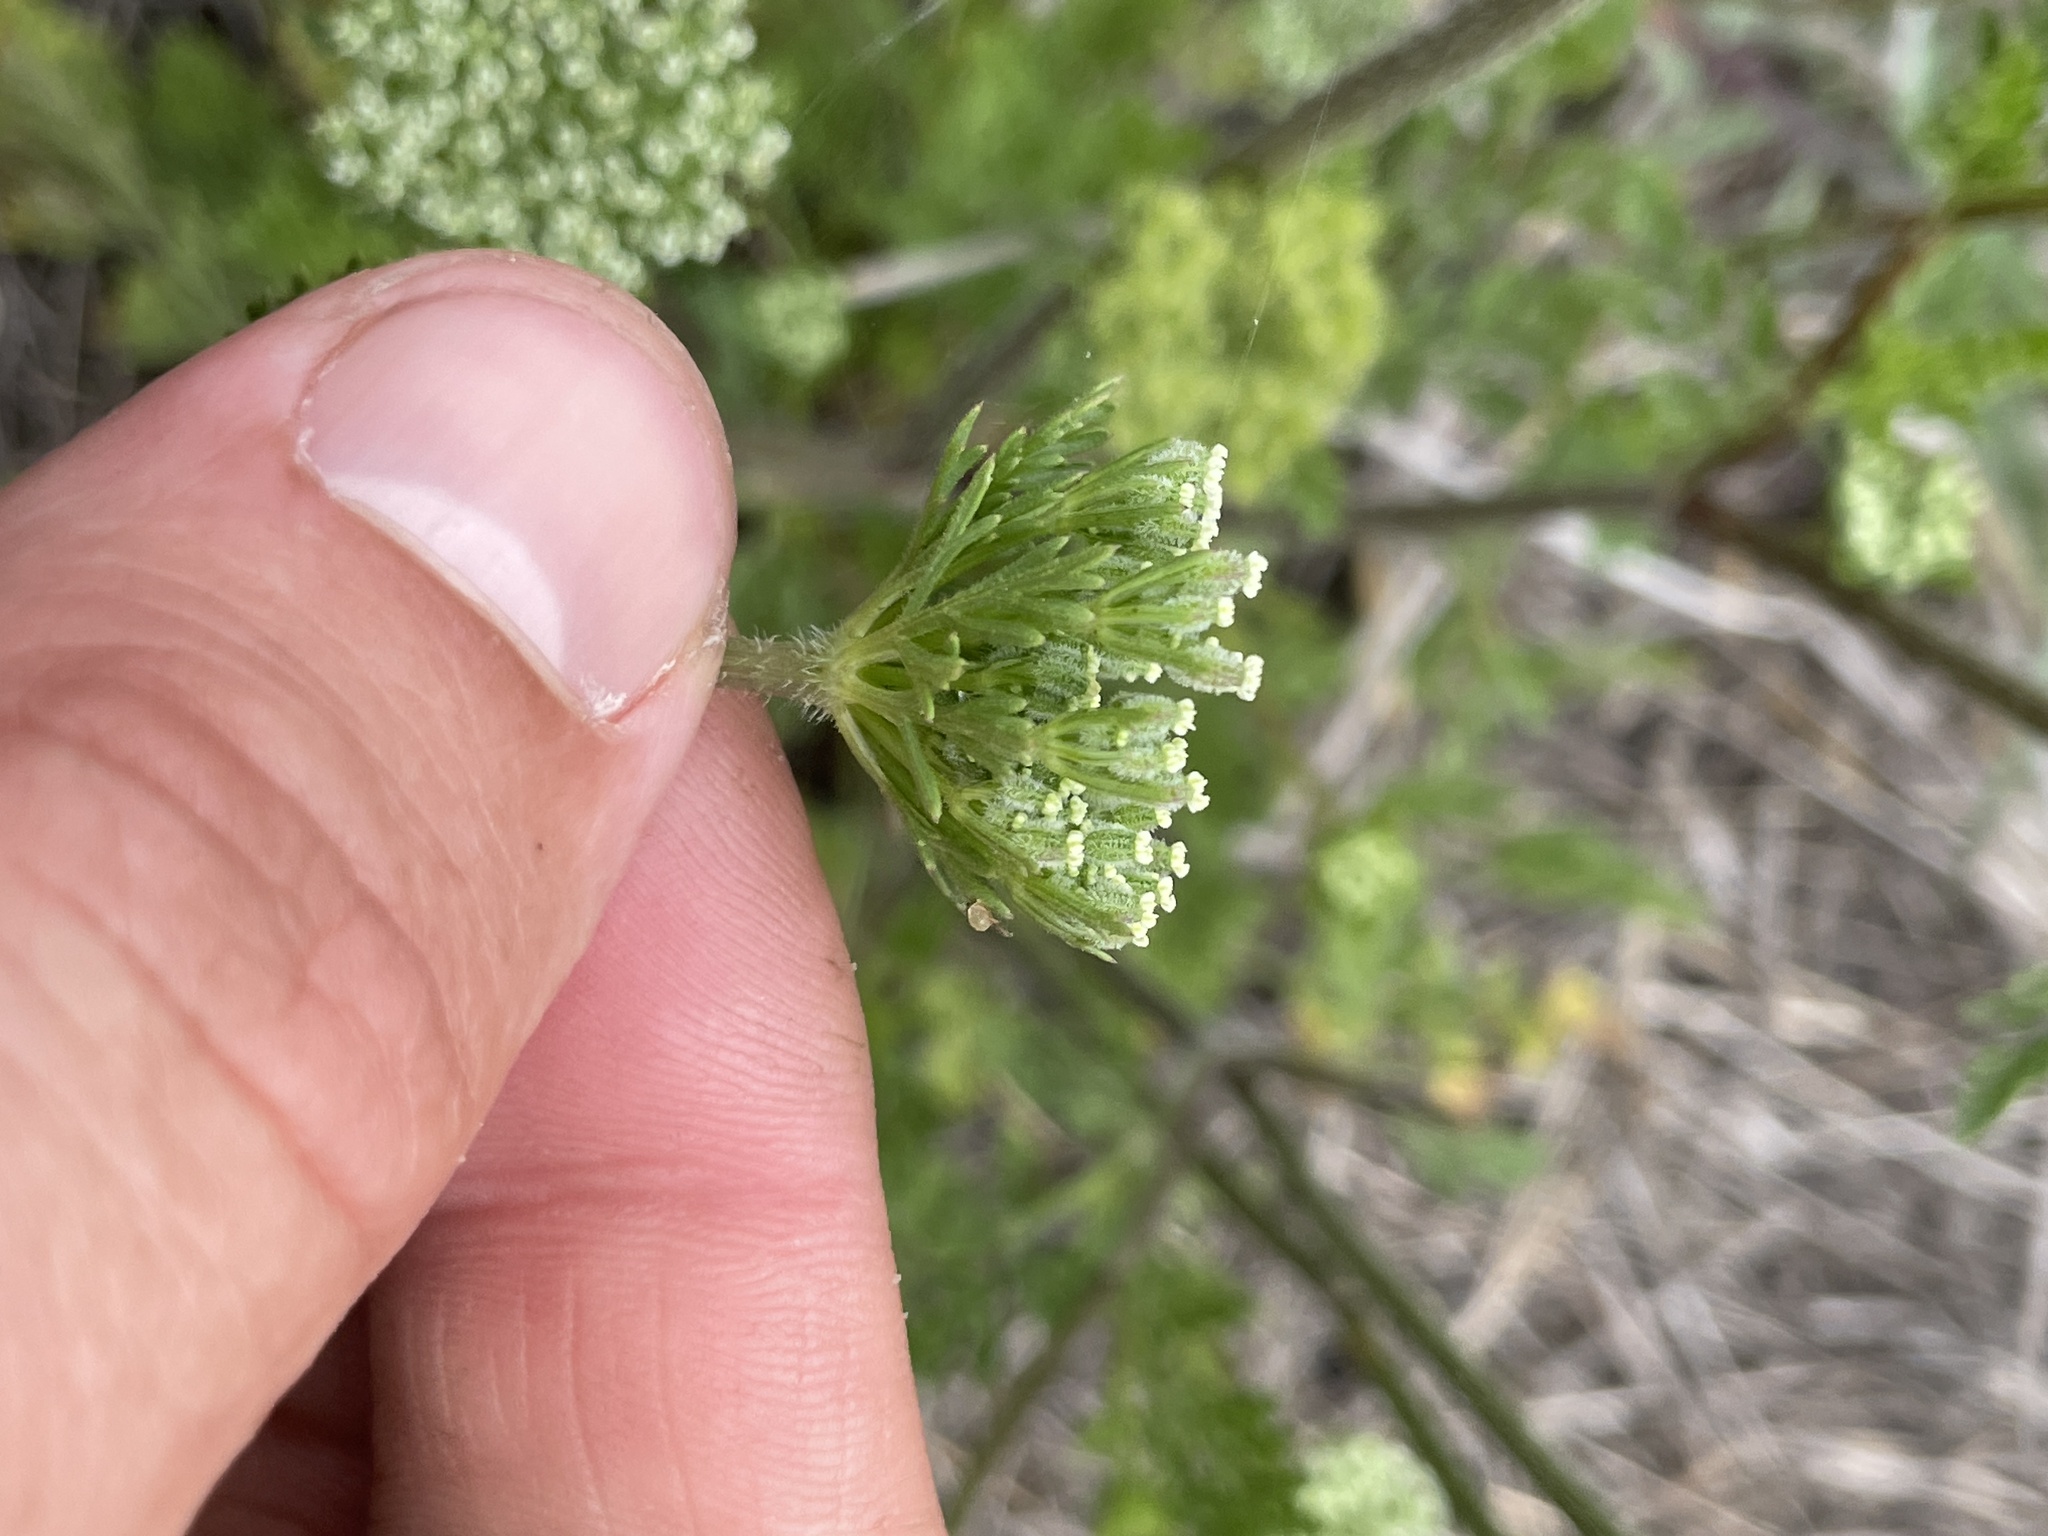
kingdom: Plantae
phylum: Tracheophyta
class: Magnoliopsida
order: Apiales
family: Apiaceae
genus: Daucus
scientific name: Daucus pusillus
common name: Southwest wild carrot
